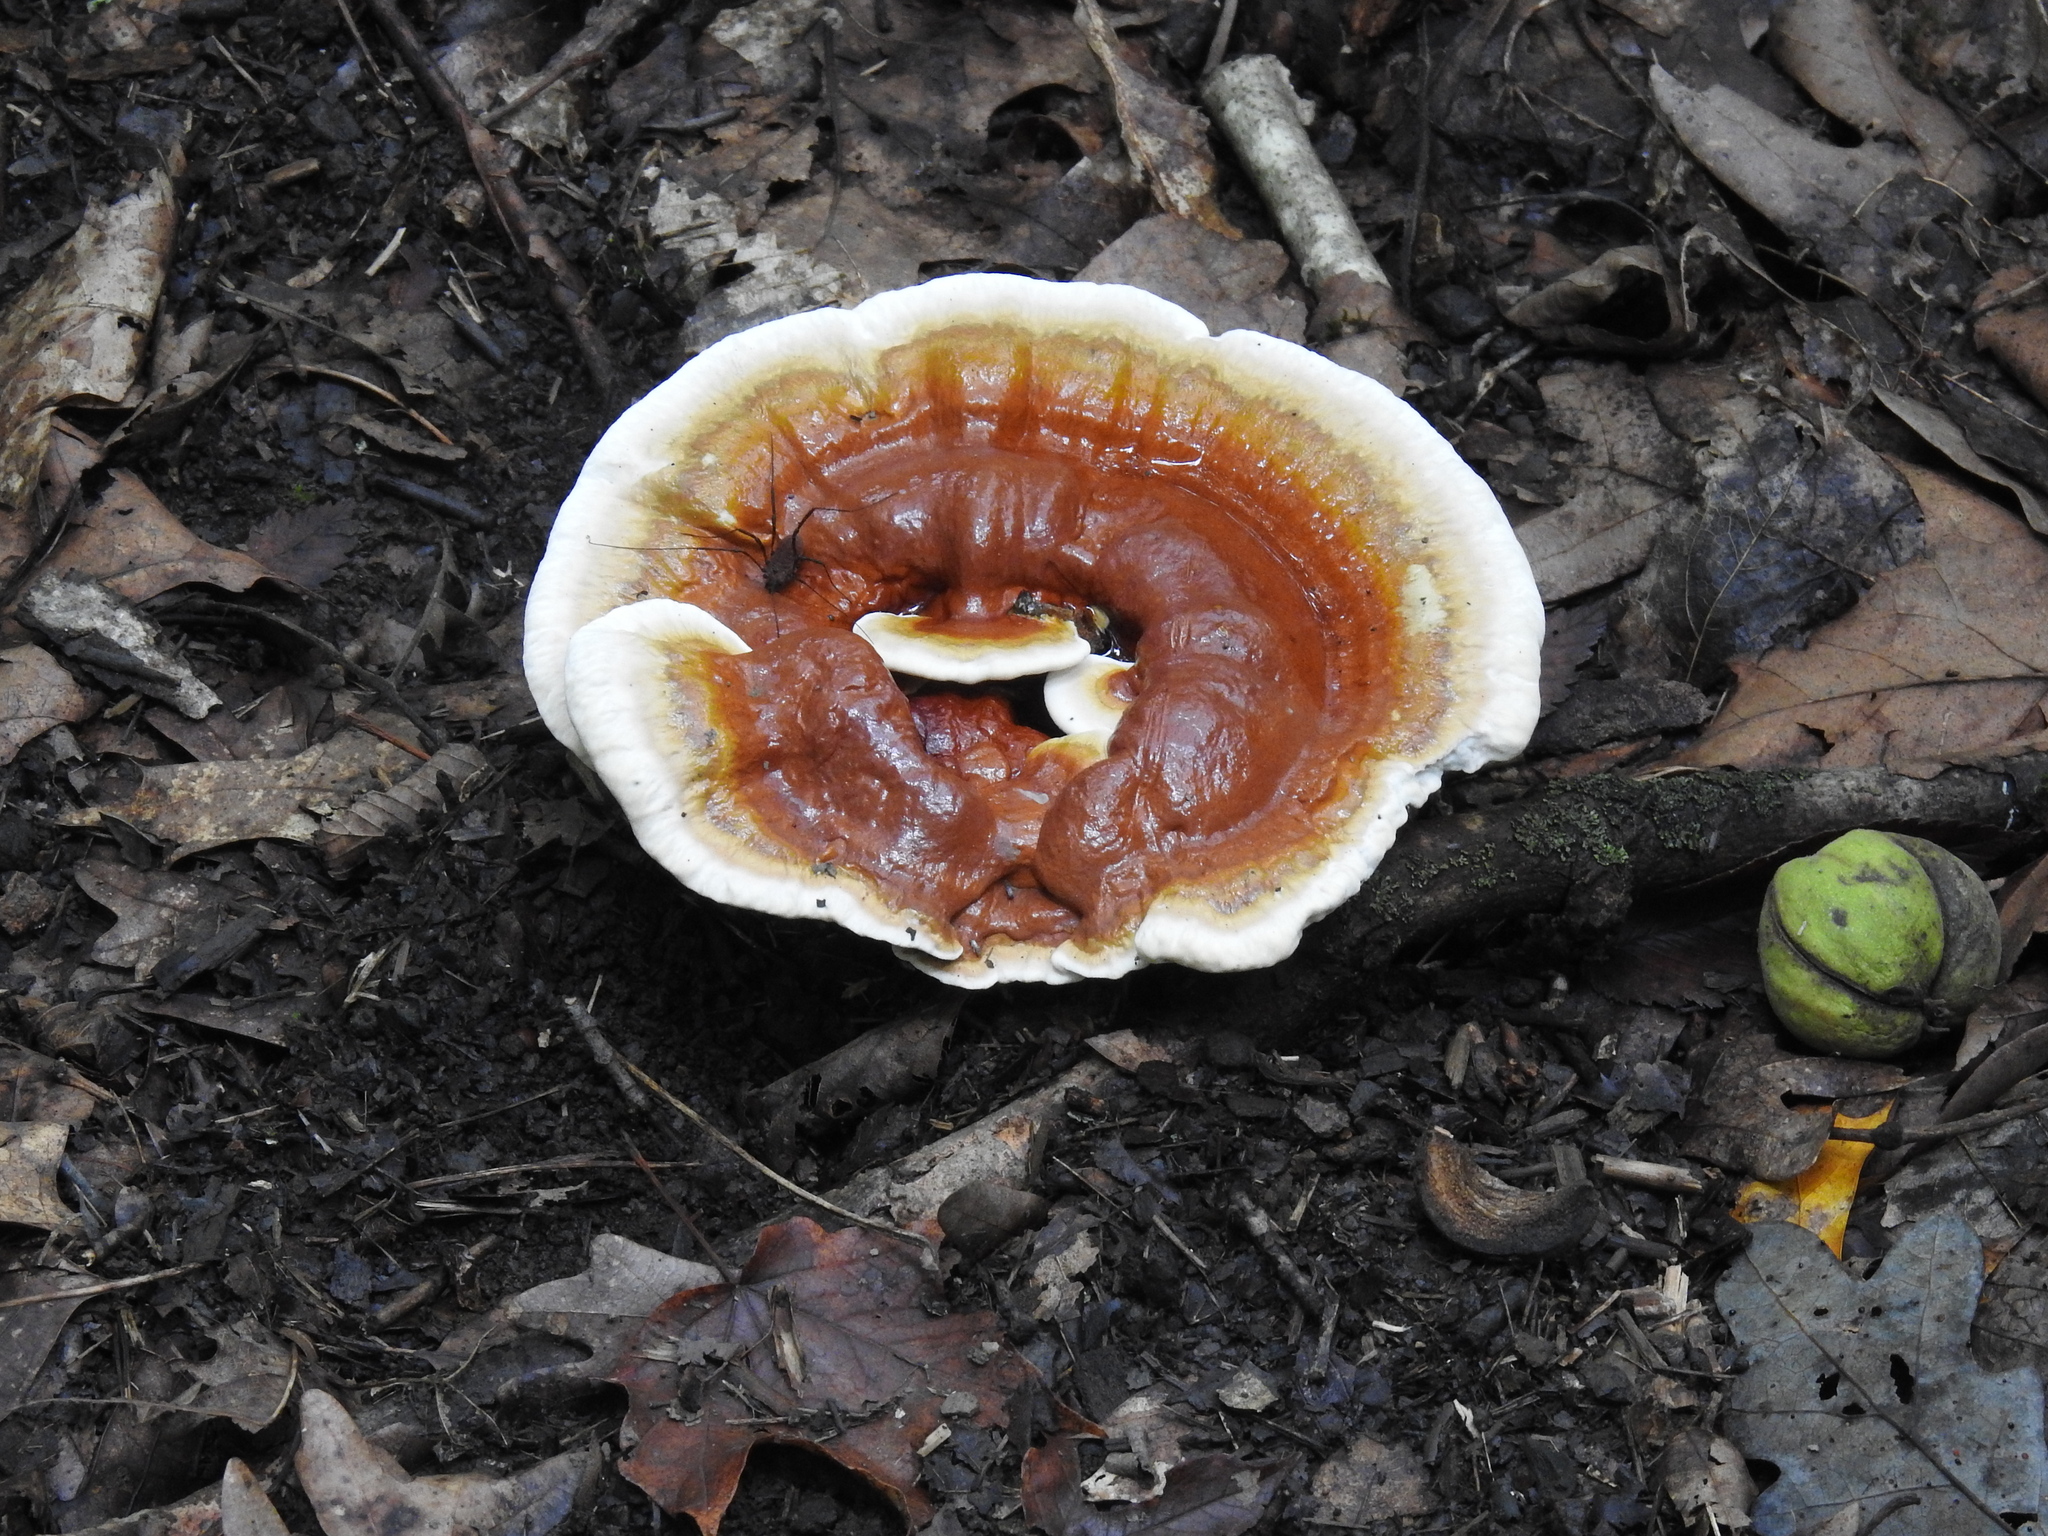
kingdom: Fungi
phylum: Basidiomycota
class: Agaricomycetes
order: Polyporales
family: Polyporaceae
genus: Ganoderma
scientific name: Ganoderma resinaceum
